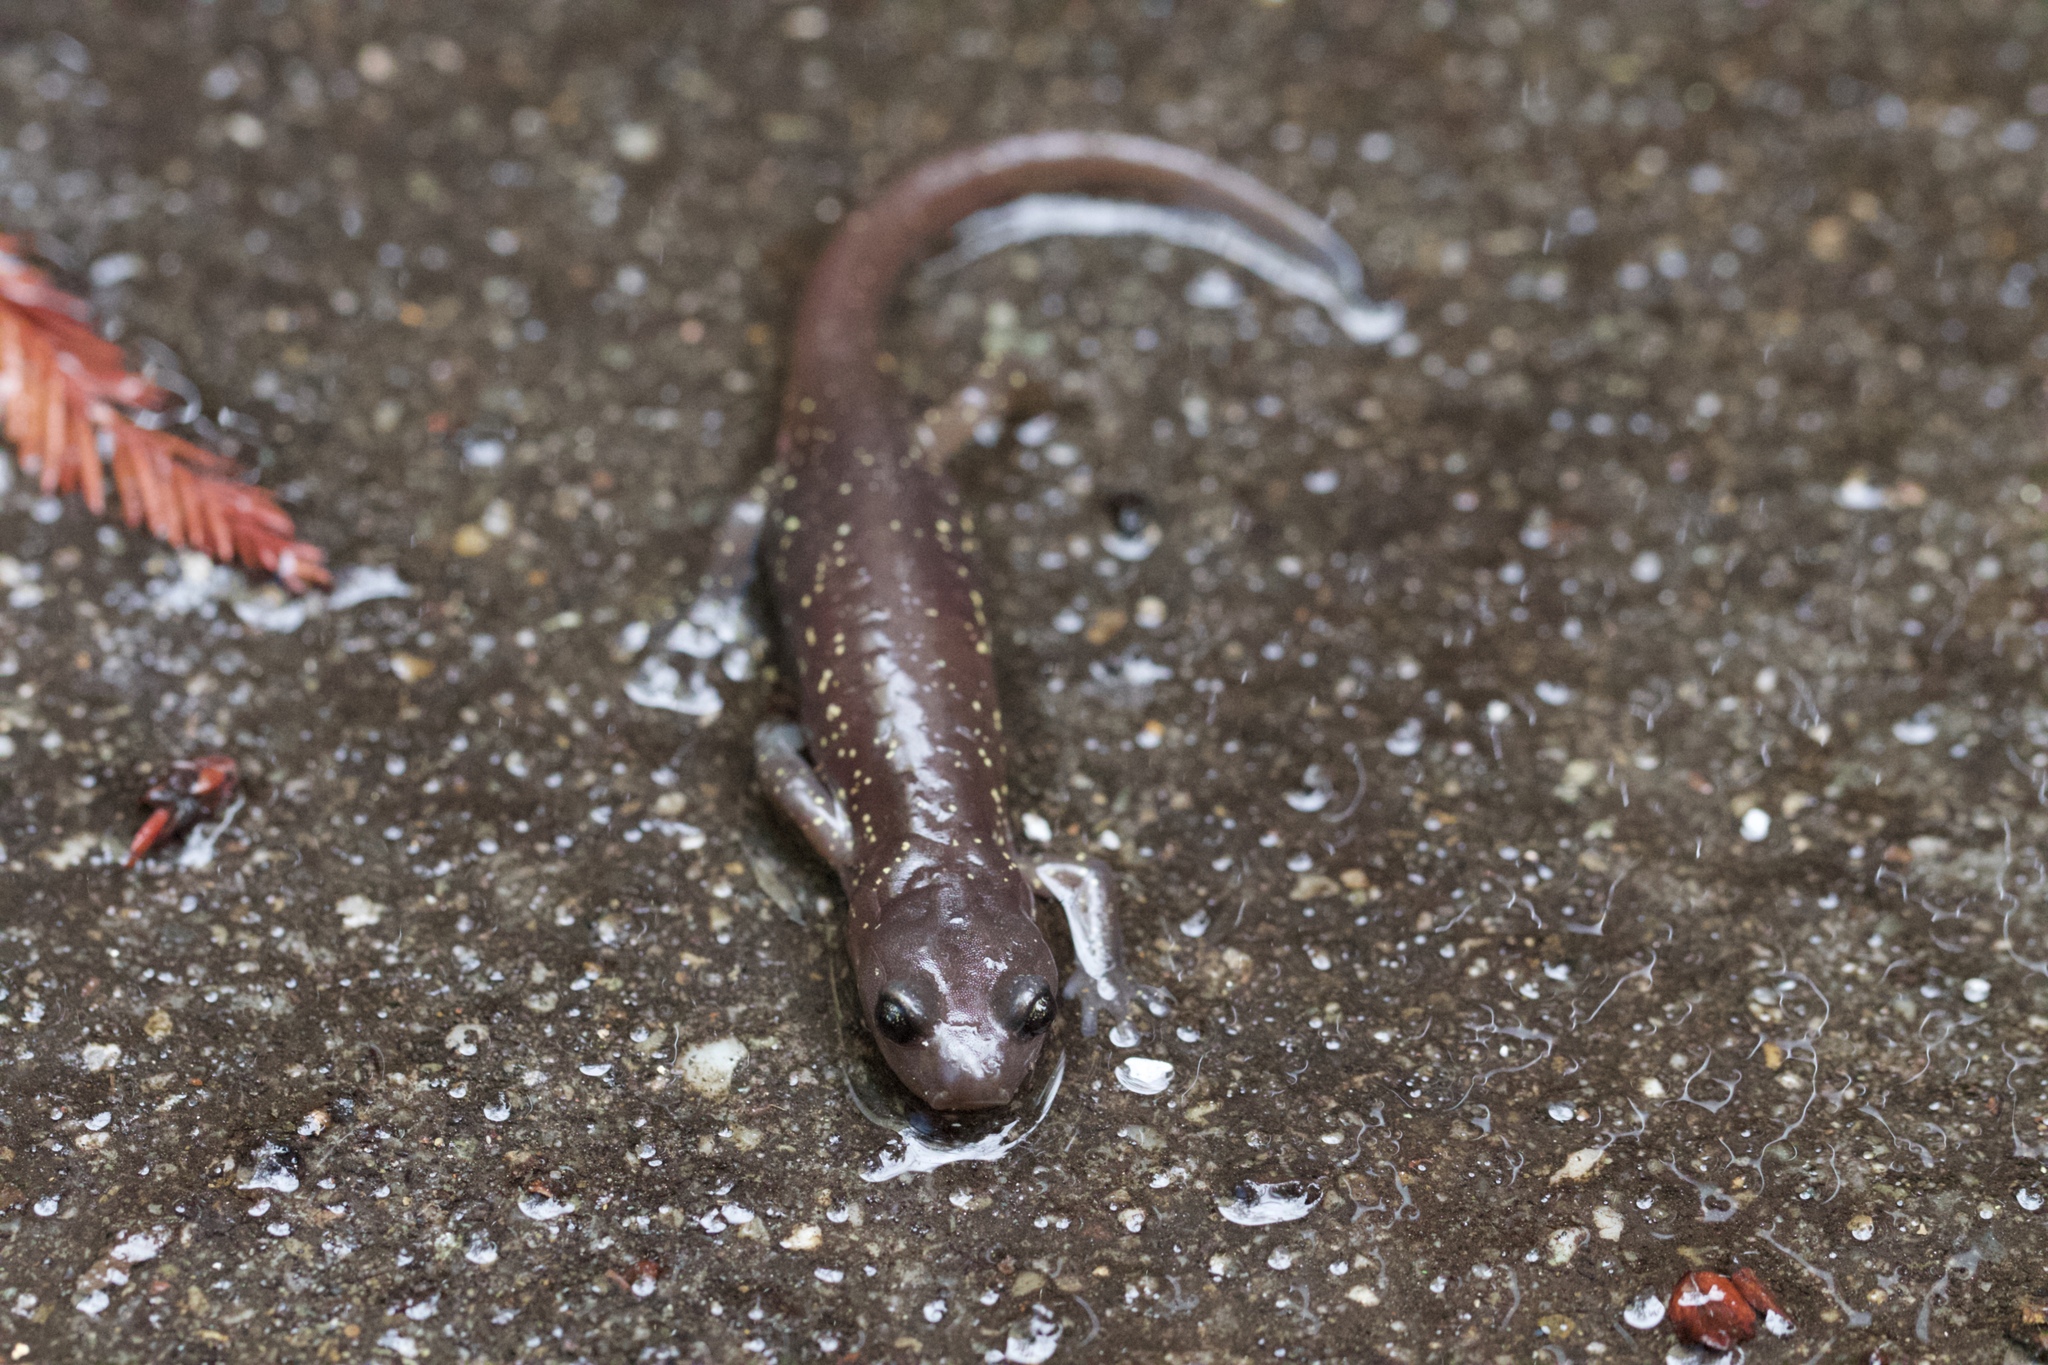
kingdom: Animalia
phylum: Chordata
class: Amphibia
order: Caudata
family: Plethodontidae
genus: Aneides
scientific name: Aneides lugubris
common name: Arboreal salamander
